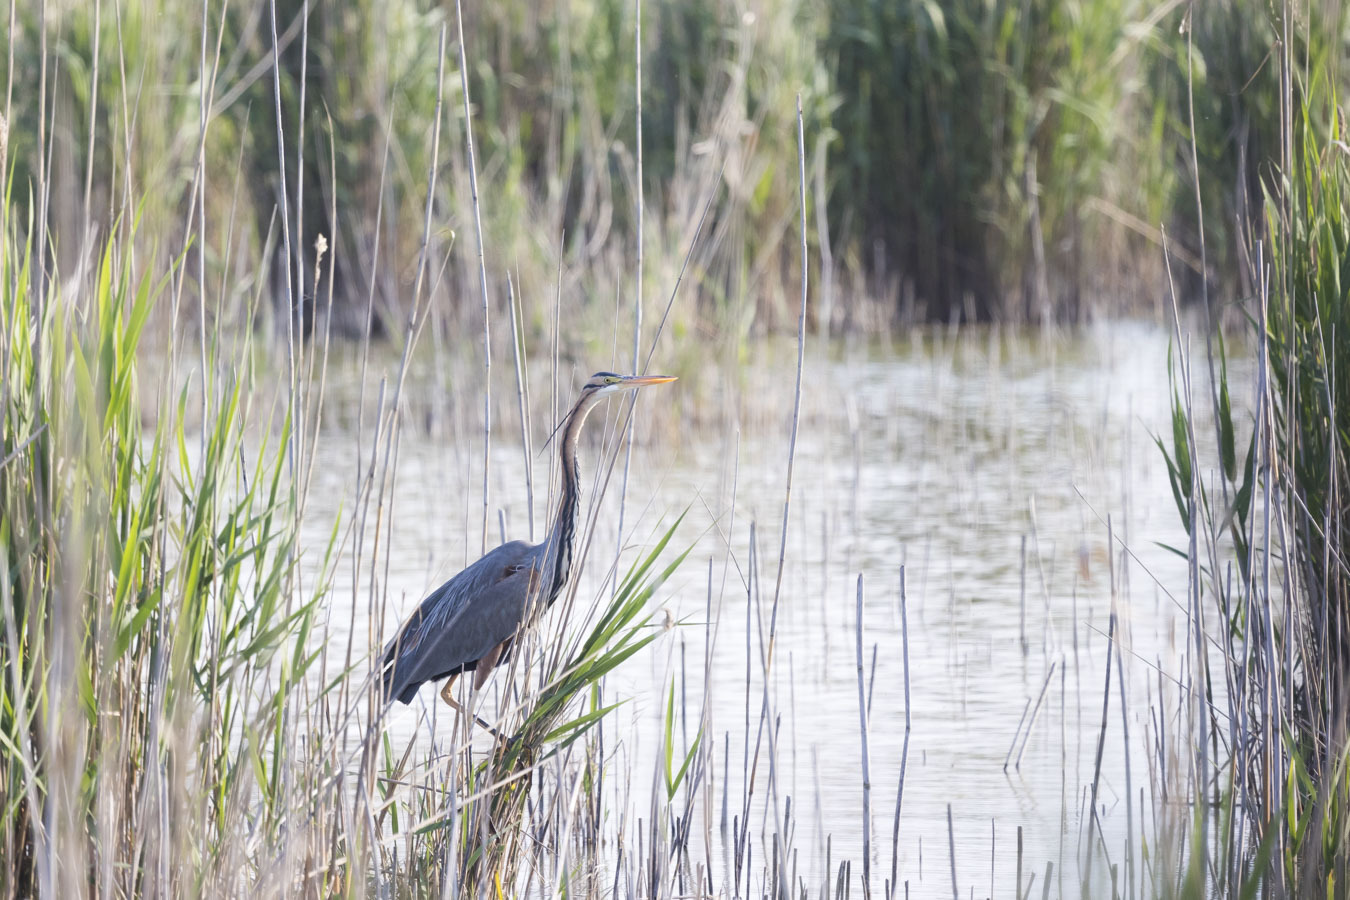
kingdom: Animalia
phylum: Chordata
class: Aves
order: Pelecaniformes
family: Ardeidae
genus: Ardea
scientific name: Ardea purpurea
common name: Purple heron
